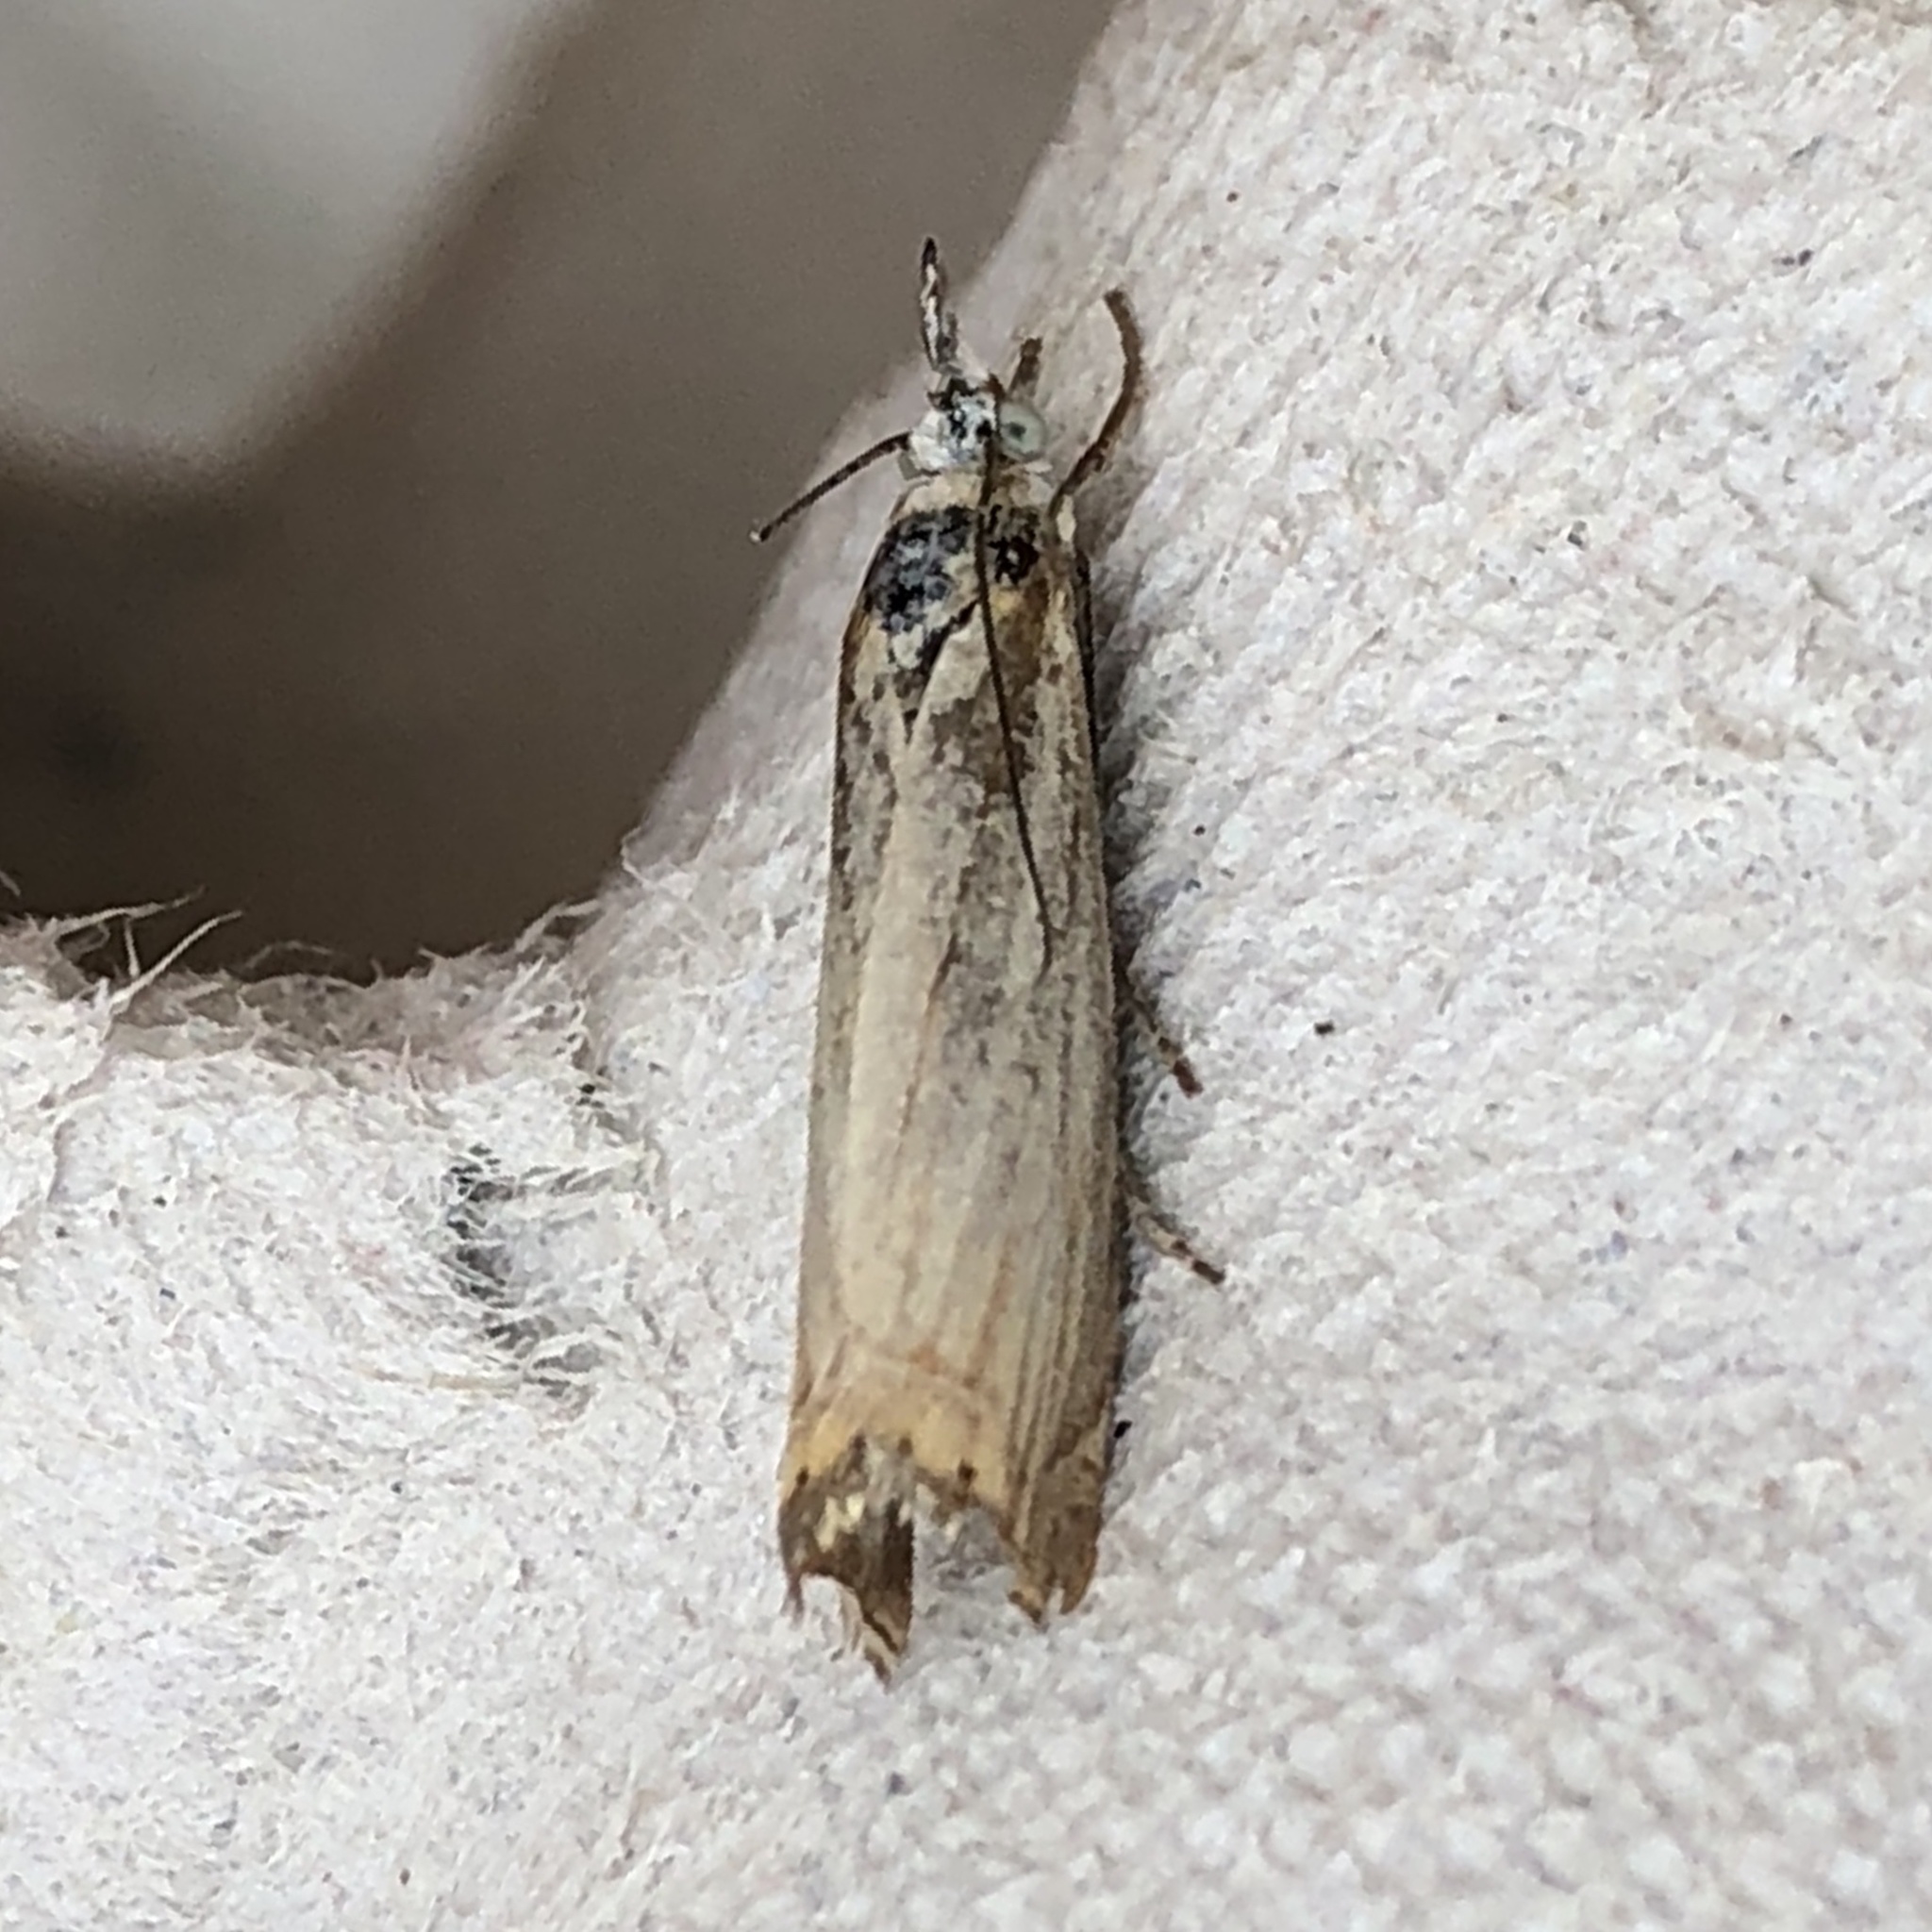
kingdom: Animalia
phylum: Arthropoda
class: Insecta
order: Lepidoptera
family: Crambidae
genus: Chrysoteuchia
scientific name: Chrysoteuchia culmella
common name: Garden grass-veneer
